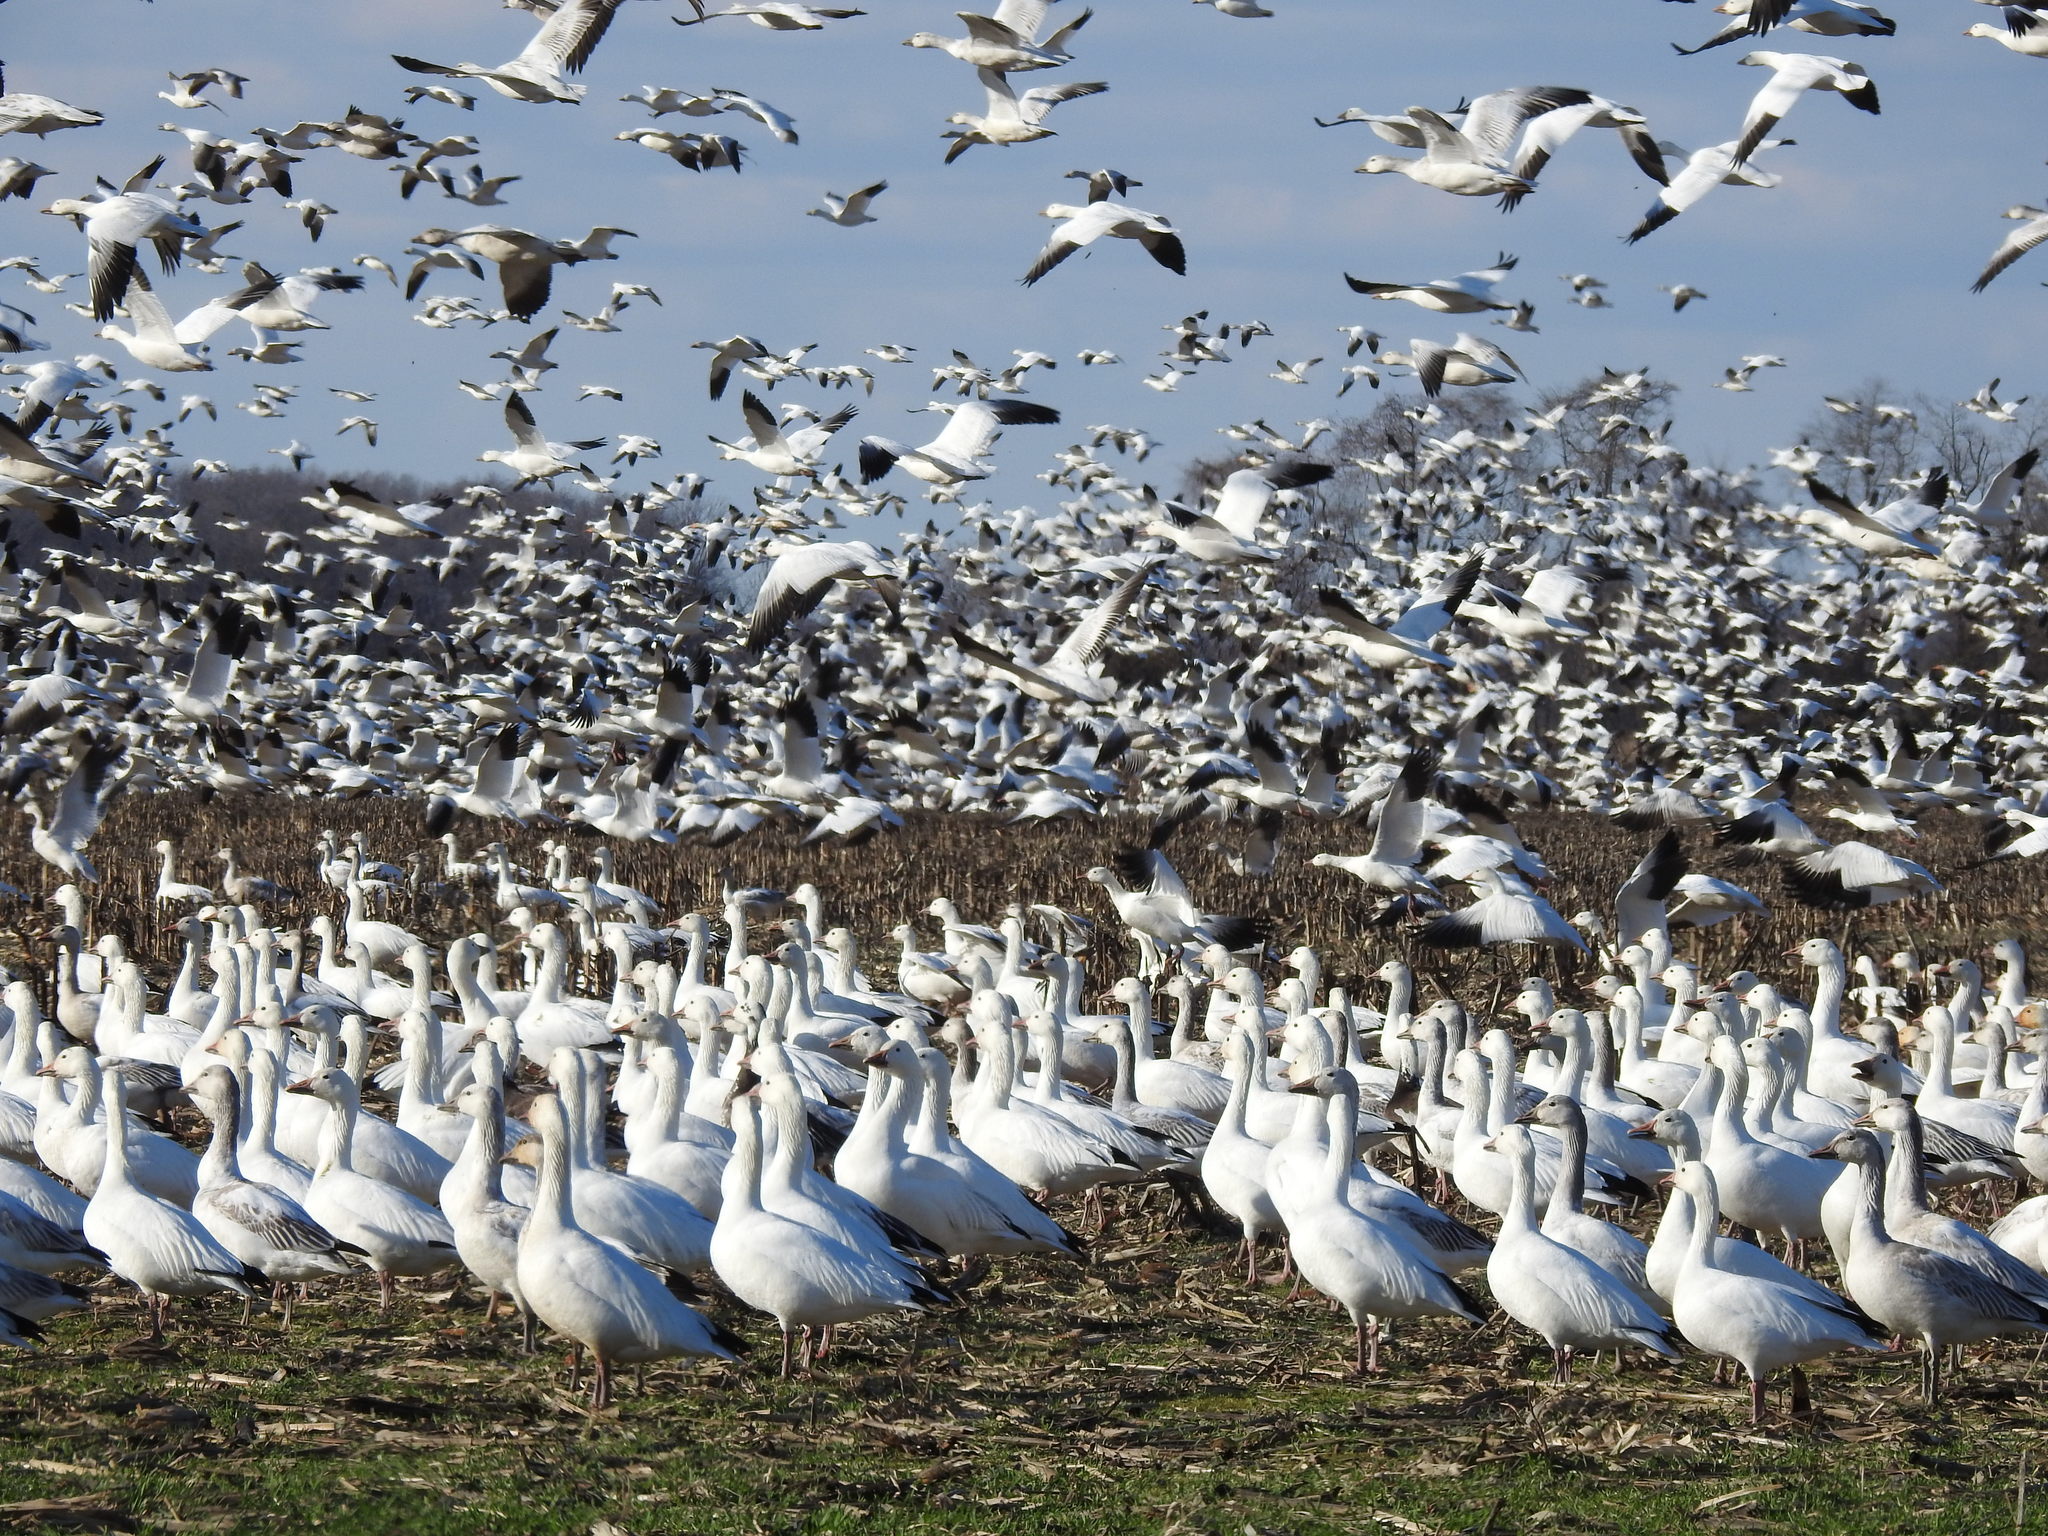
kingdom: Animalia
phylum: Chordata
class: Aves
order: Anseriformes
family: Anatidae
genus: Anser
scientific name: Anser caerulescens
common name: Snow goose
